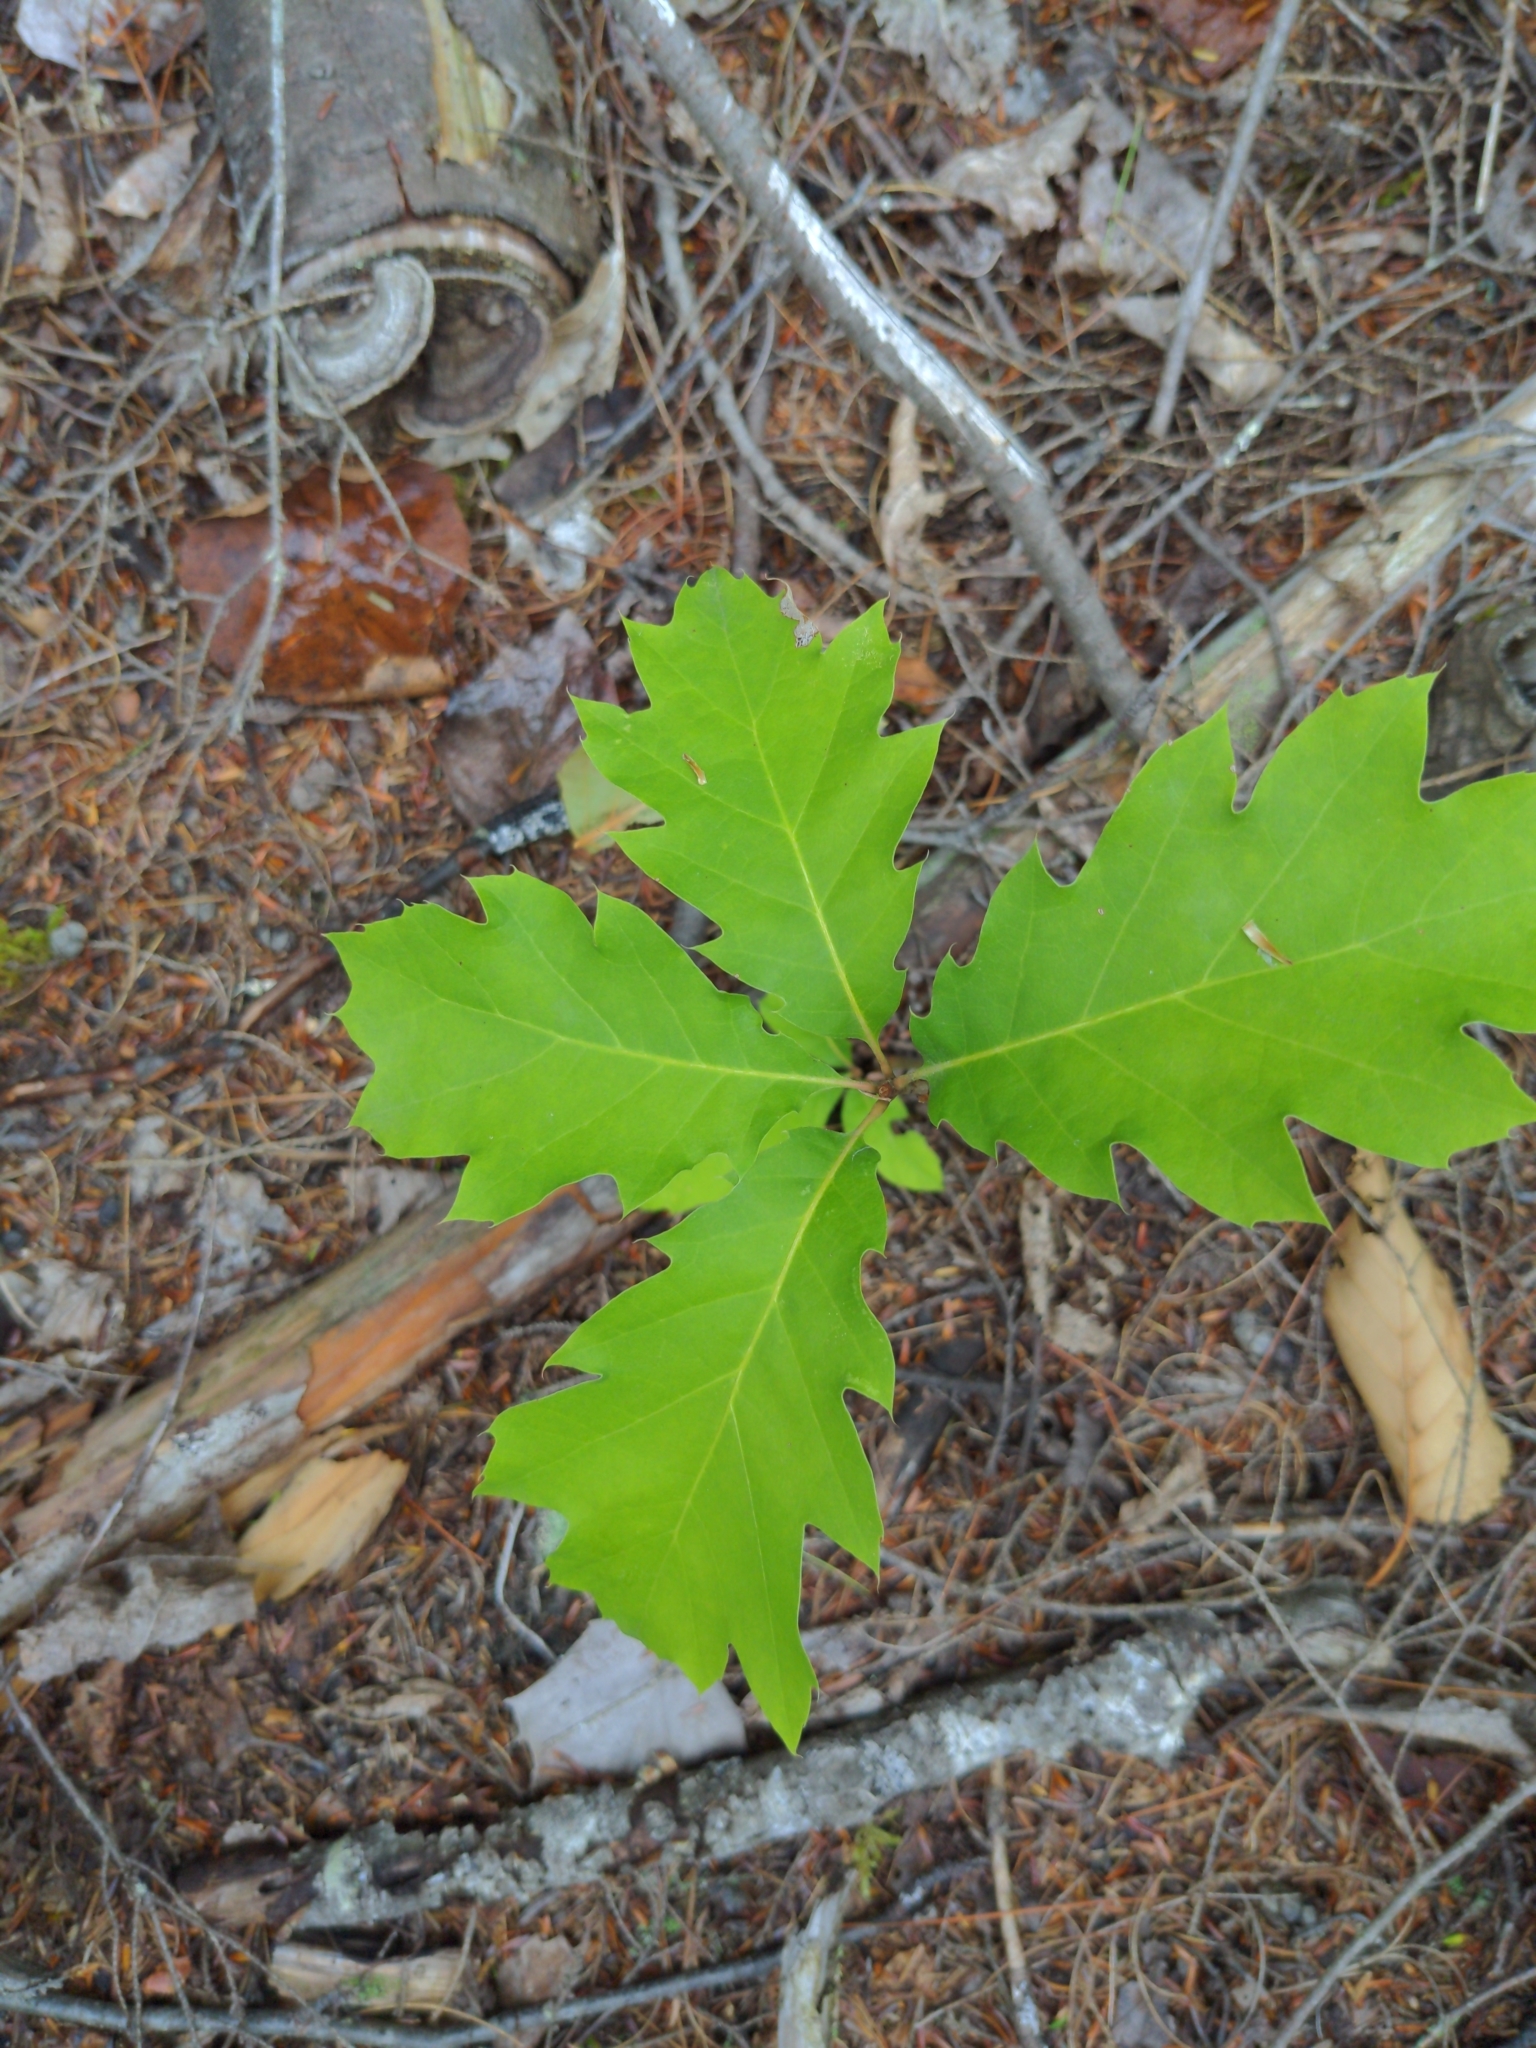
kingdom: Plantae
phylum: Tracheophyta
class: Magnoliopsida
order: Fagales
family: Fagaceae
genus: Quercus
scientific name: Quercus rubra
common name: Red oak
